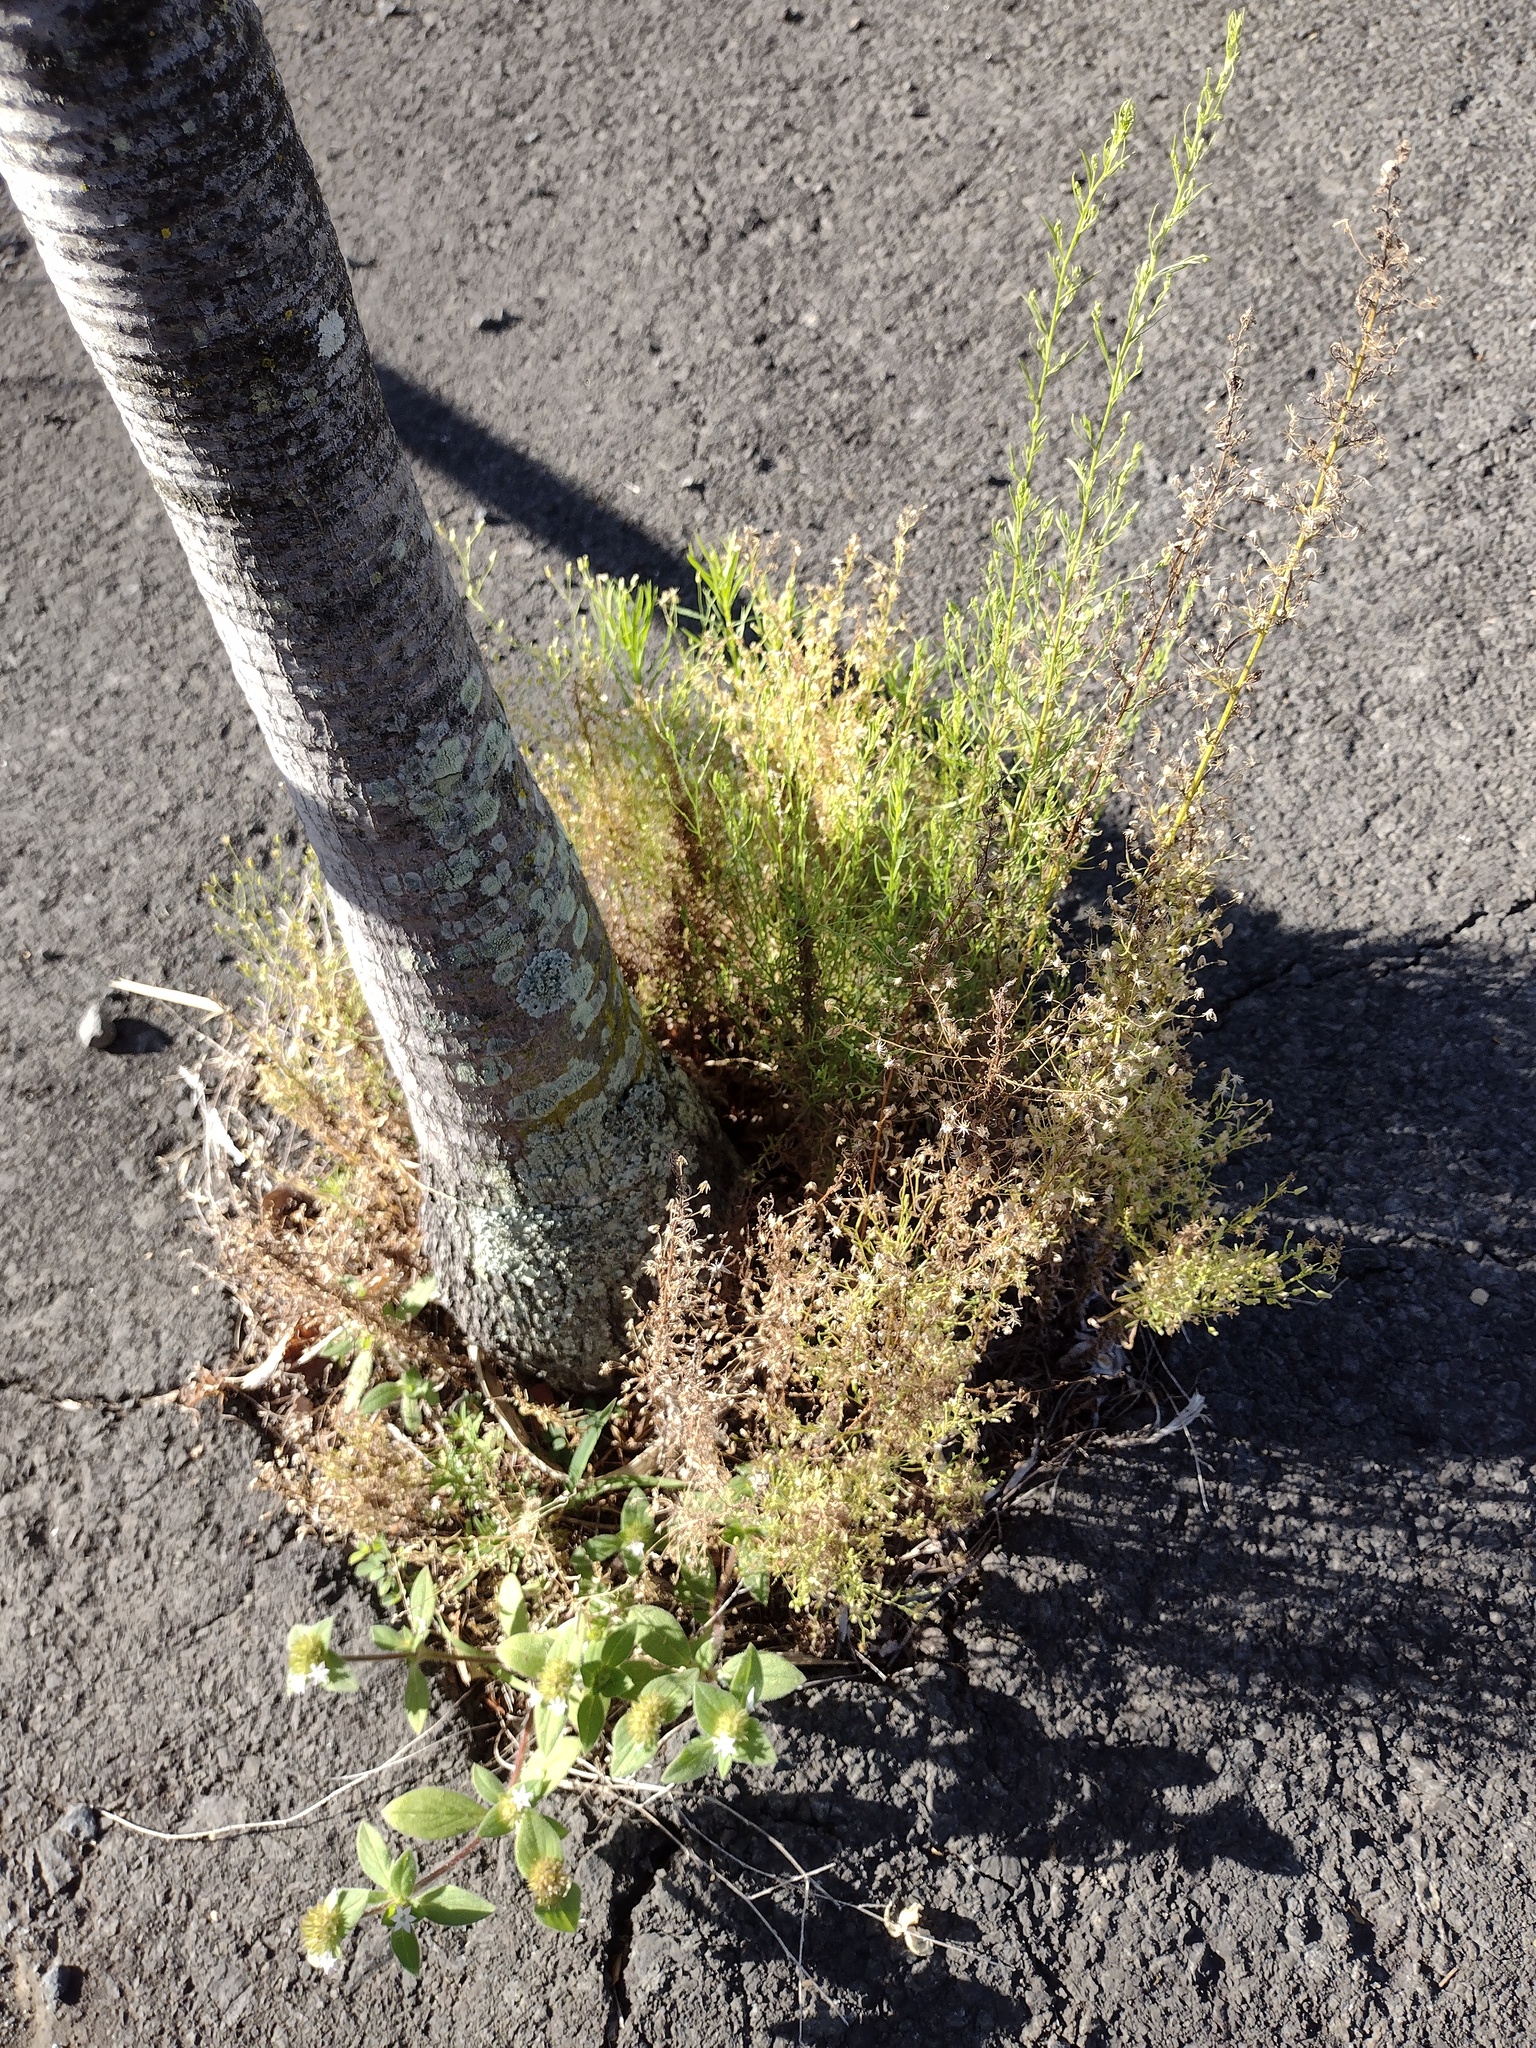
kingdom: Plantae
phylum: Tracheophyta
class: Magnoliopsida
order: Asterales
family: Asteraceae
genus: Erigeron
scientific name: Erigeron canadensis
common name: Canadian fleabane
